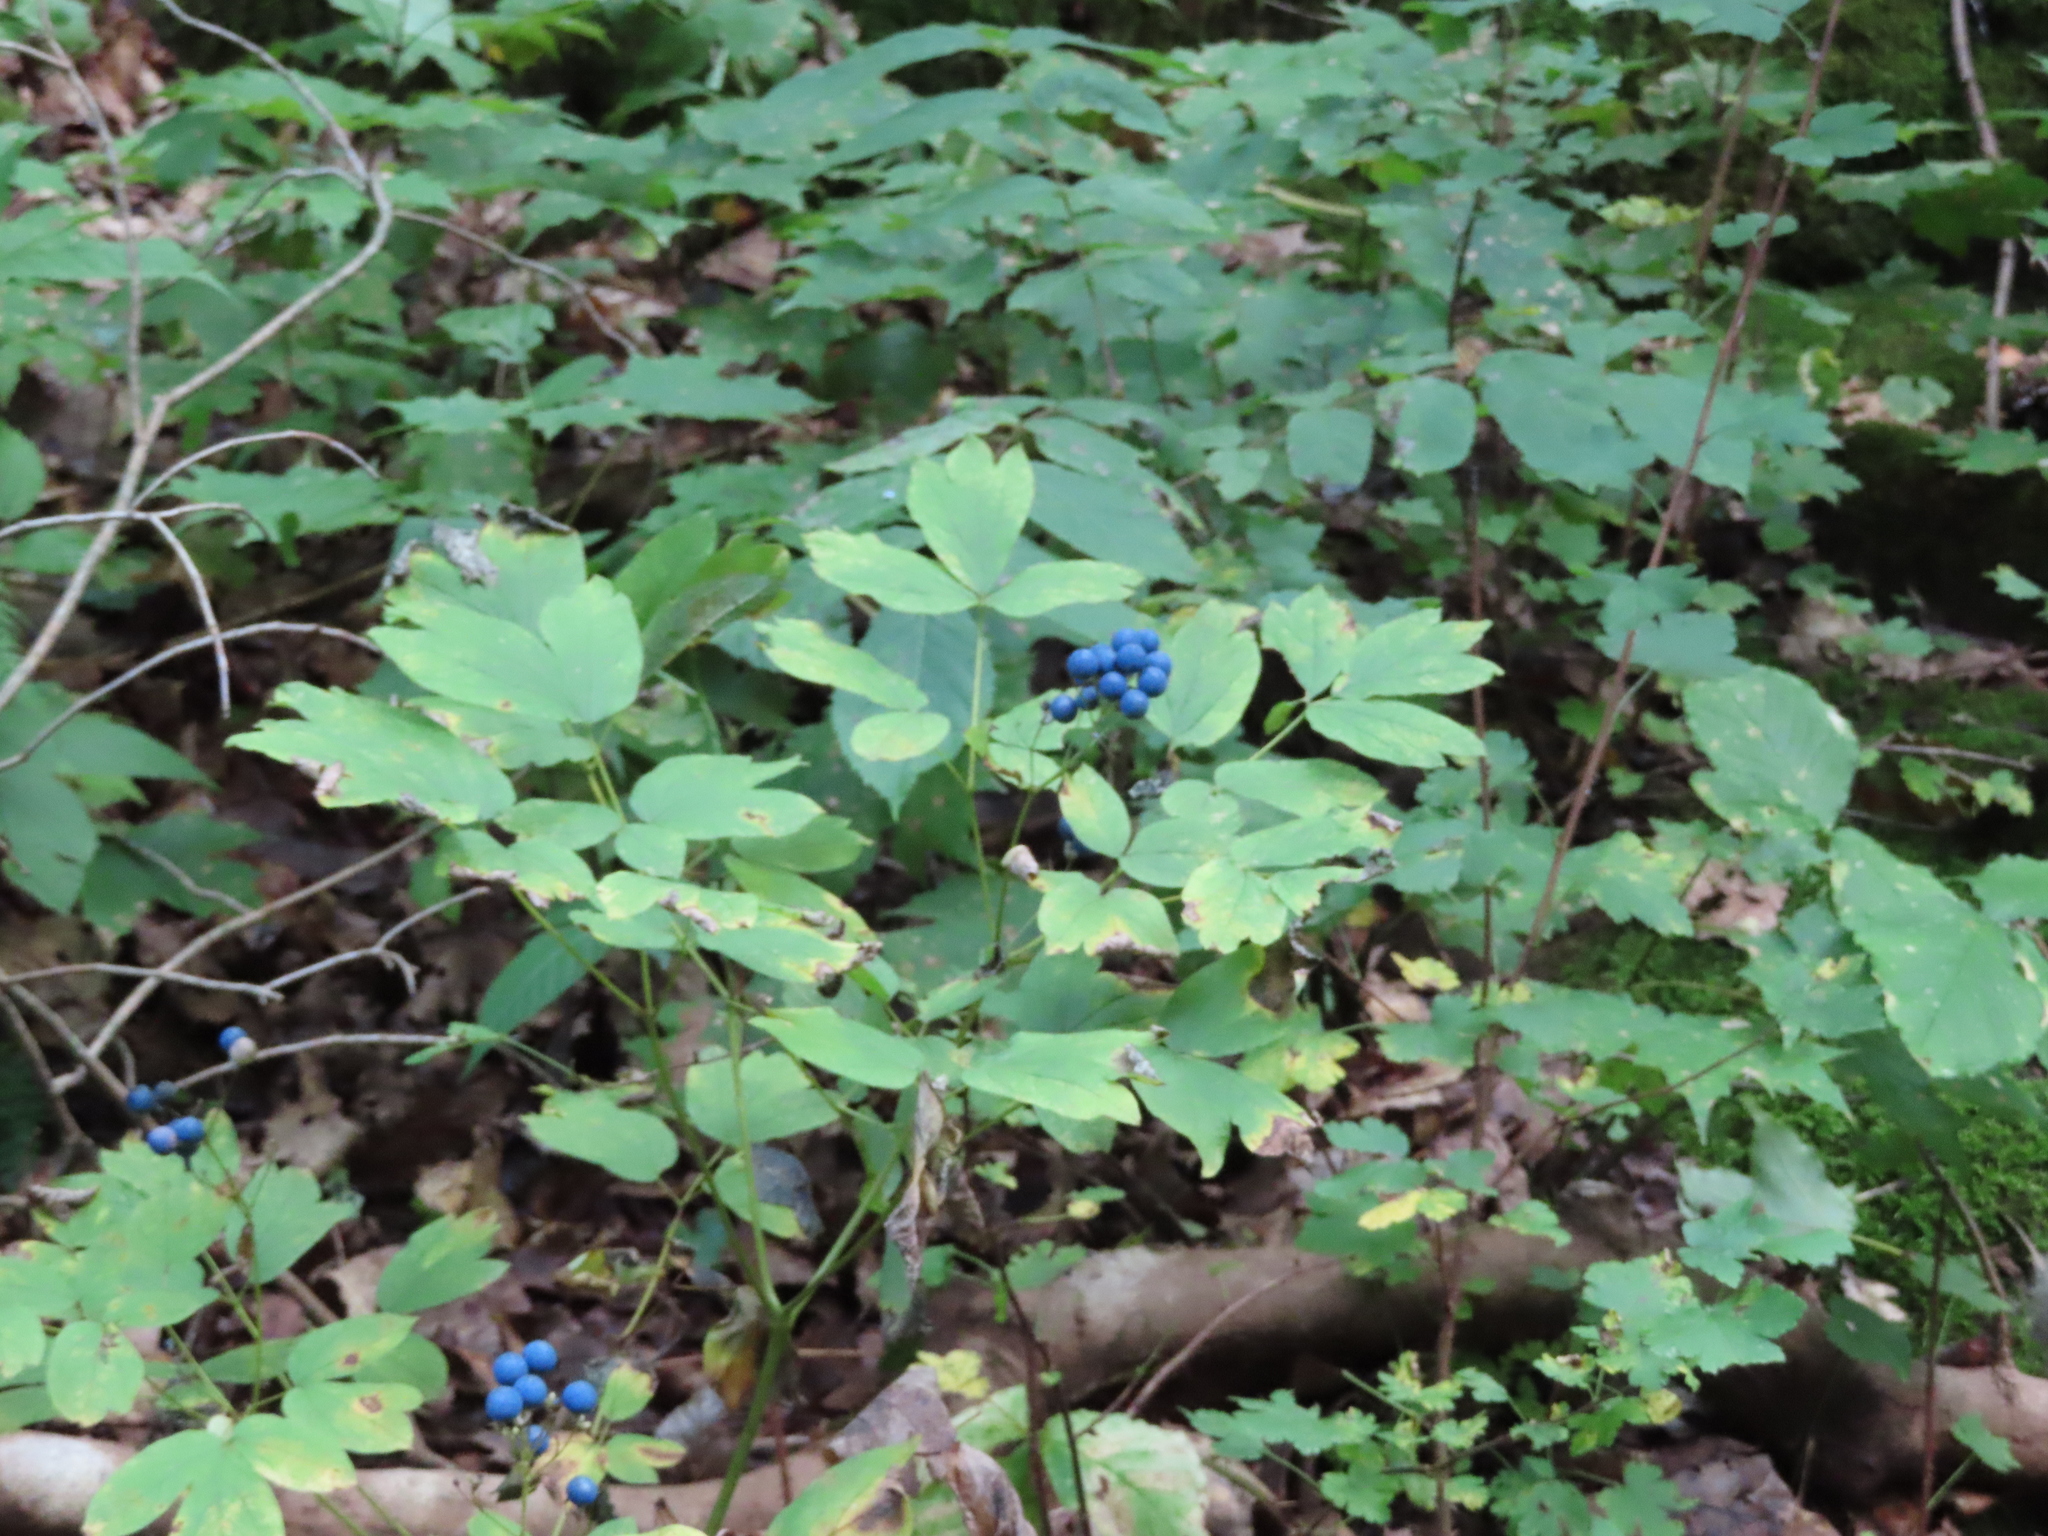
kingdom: Plantae
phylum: Tracheophyta
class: Magnoliopsida
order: Ranunculales
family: Berberidaceae
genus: Caulophyllum
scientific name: Caulophyllum thalictroides
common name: Blue cohosh
